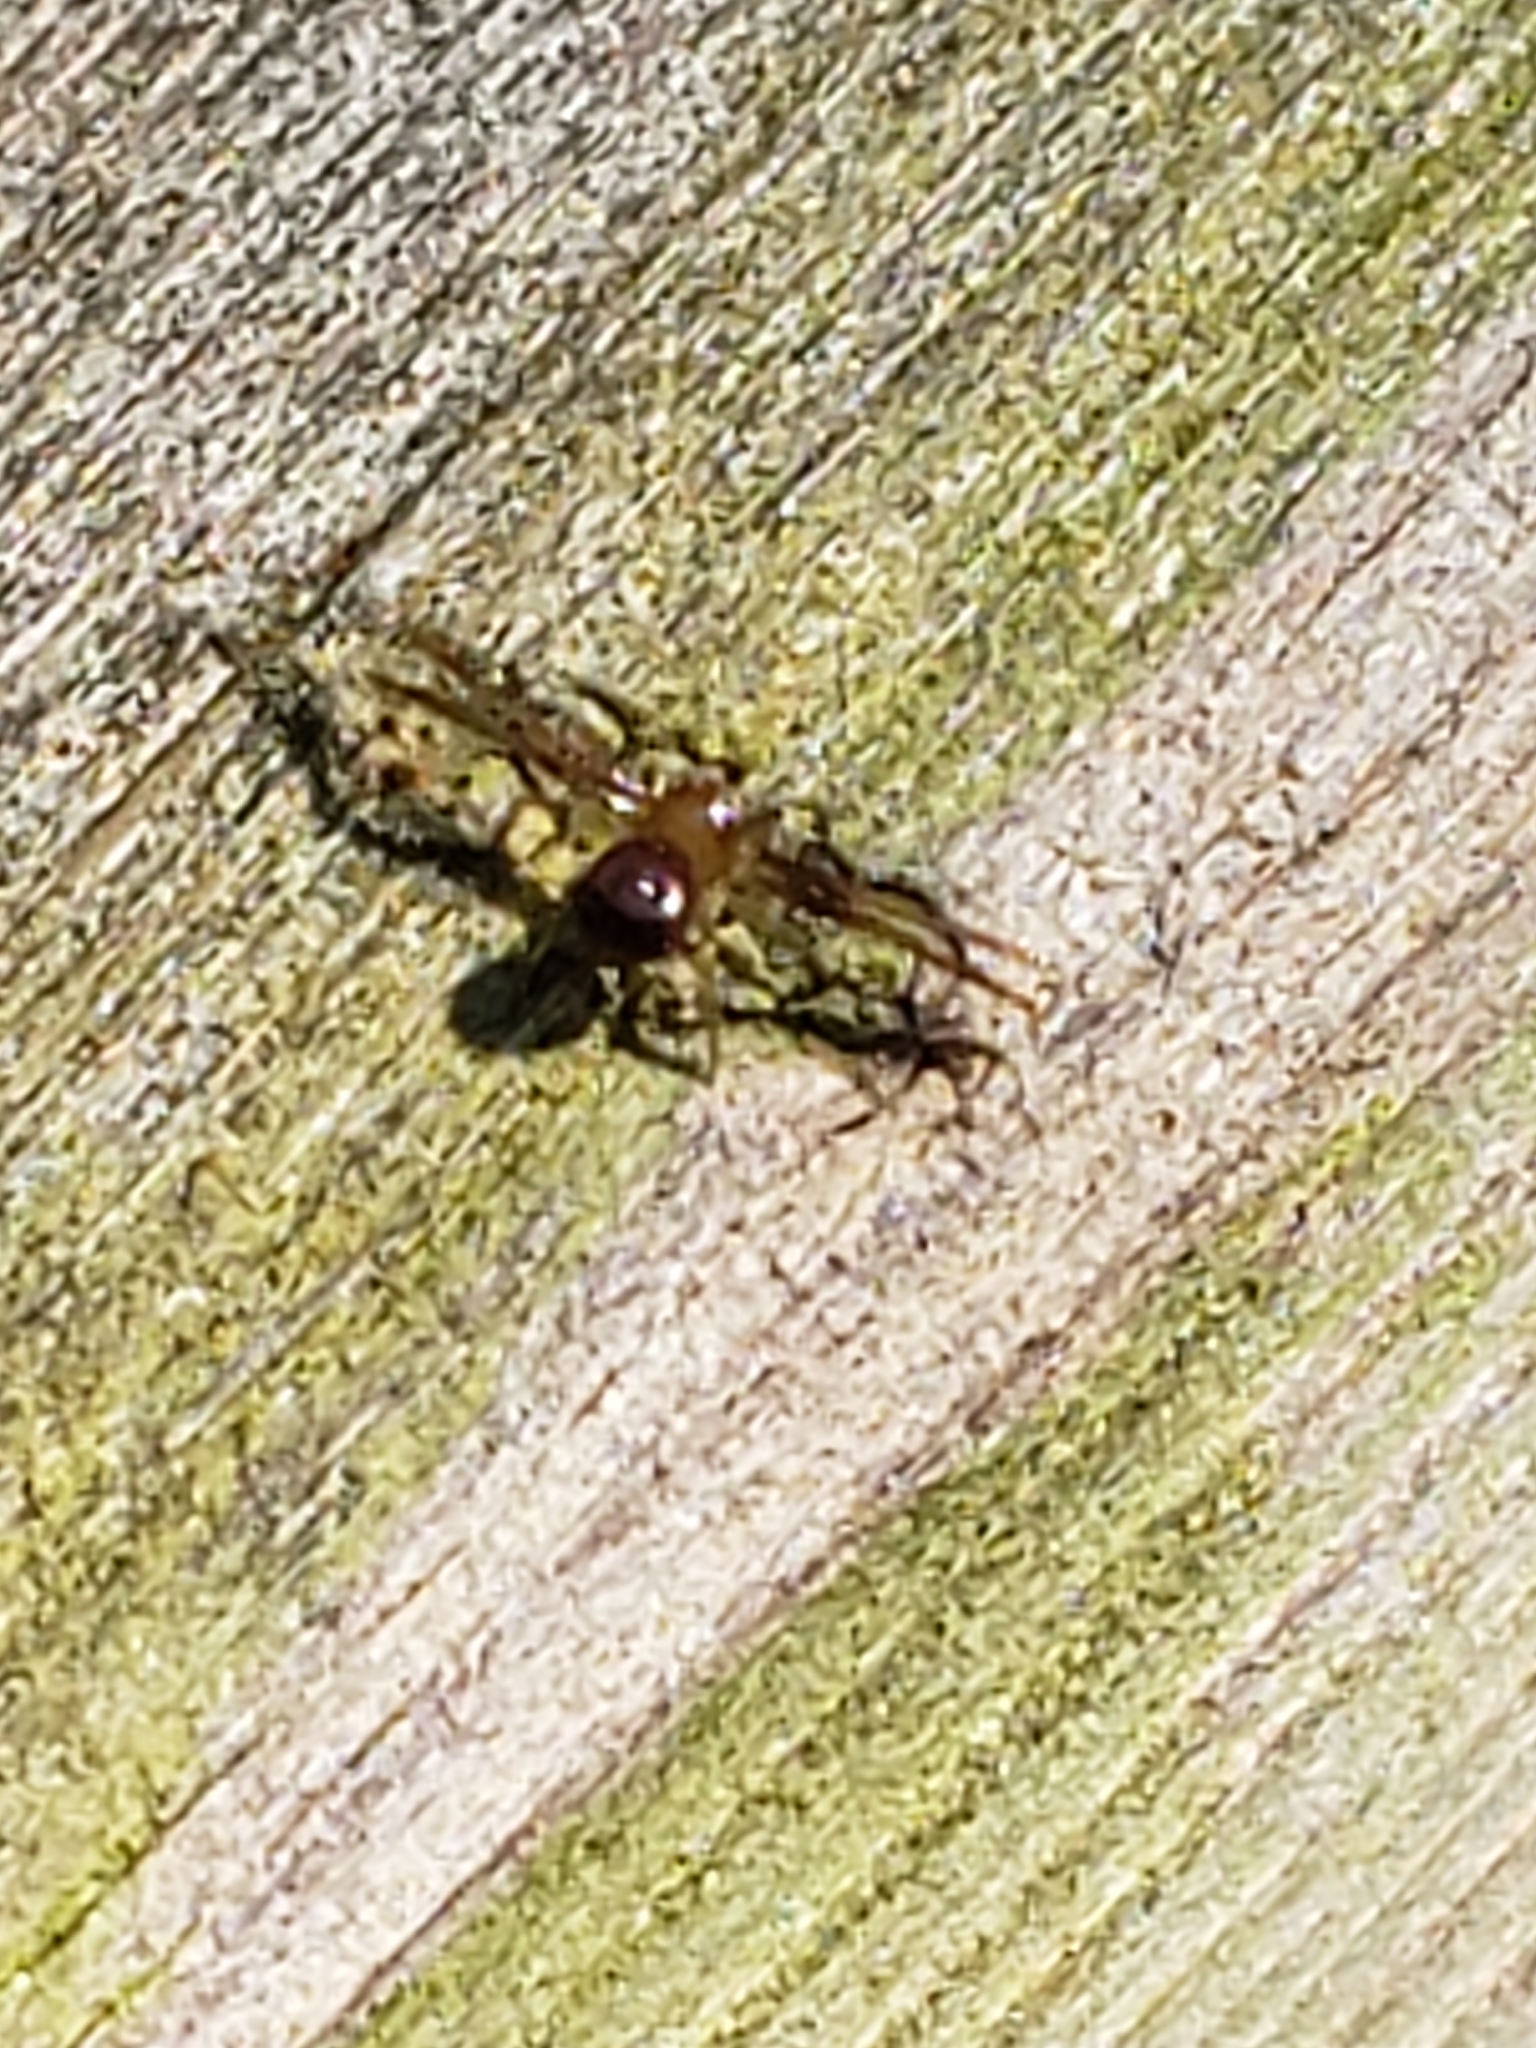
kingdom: Animalia
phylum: Arthropoda
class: Arachnida
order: Araneae
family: Thomisidae
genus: Synema
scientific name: Synema parvulum
